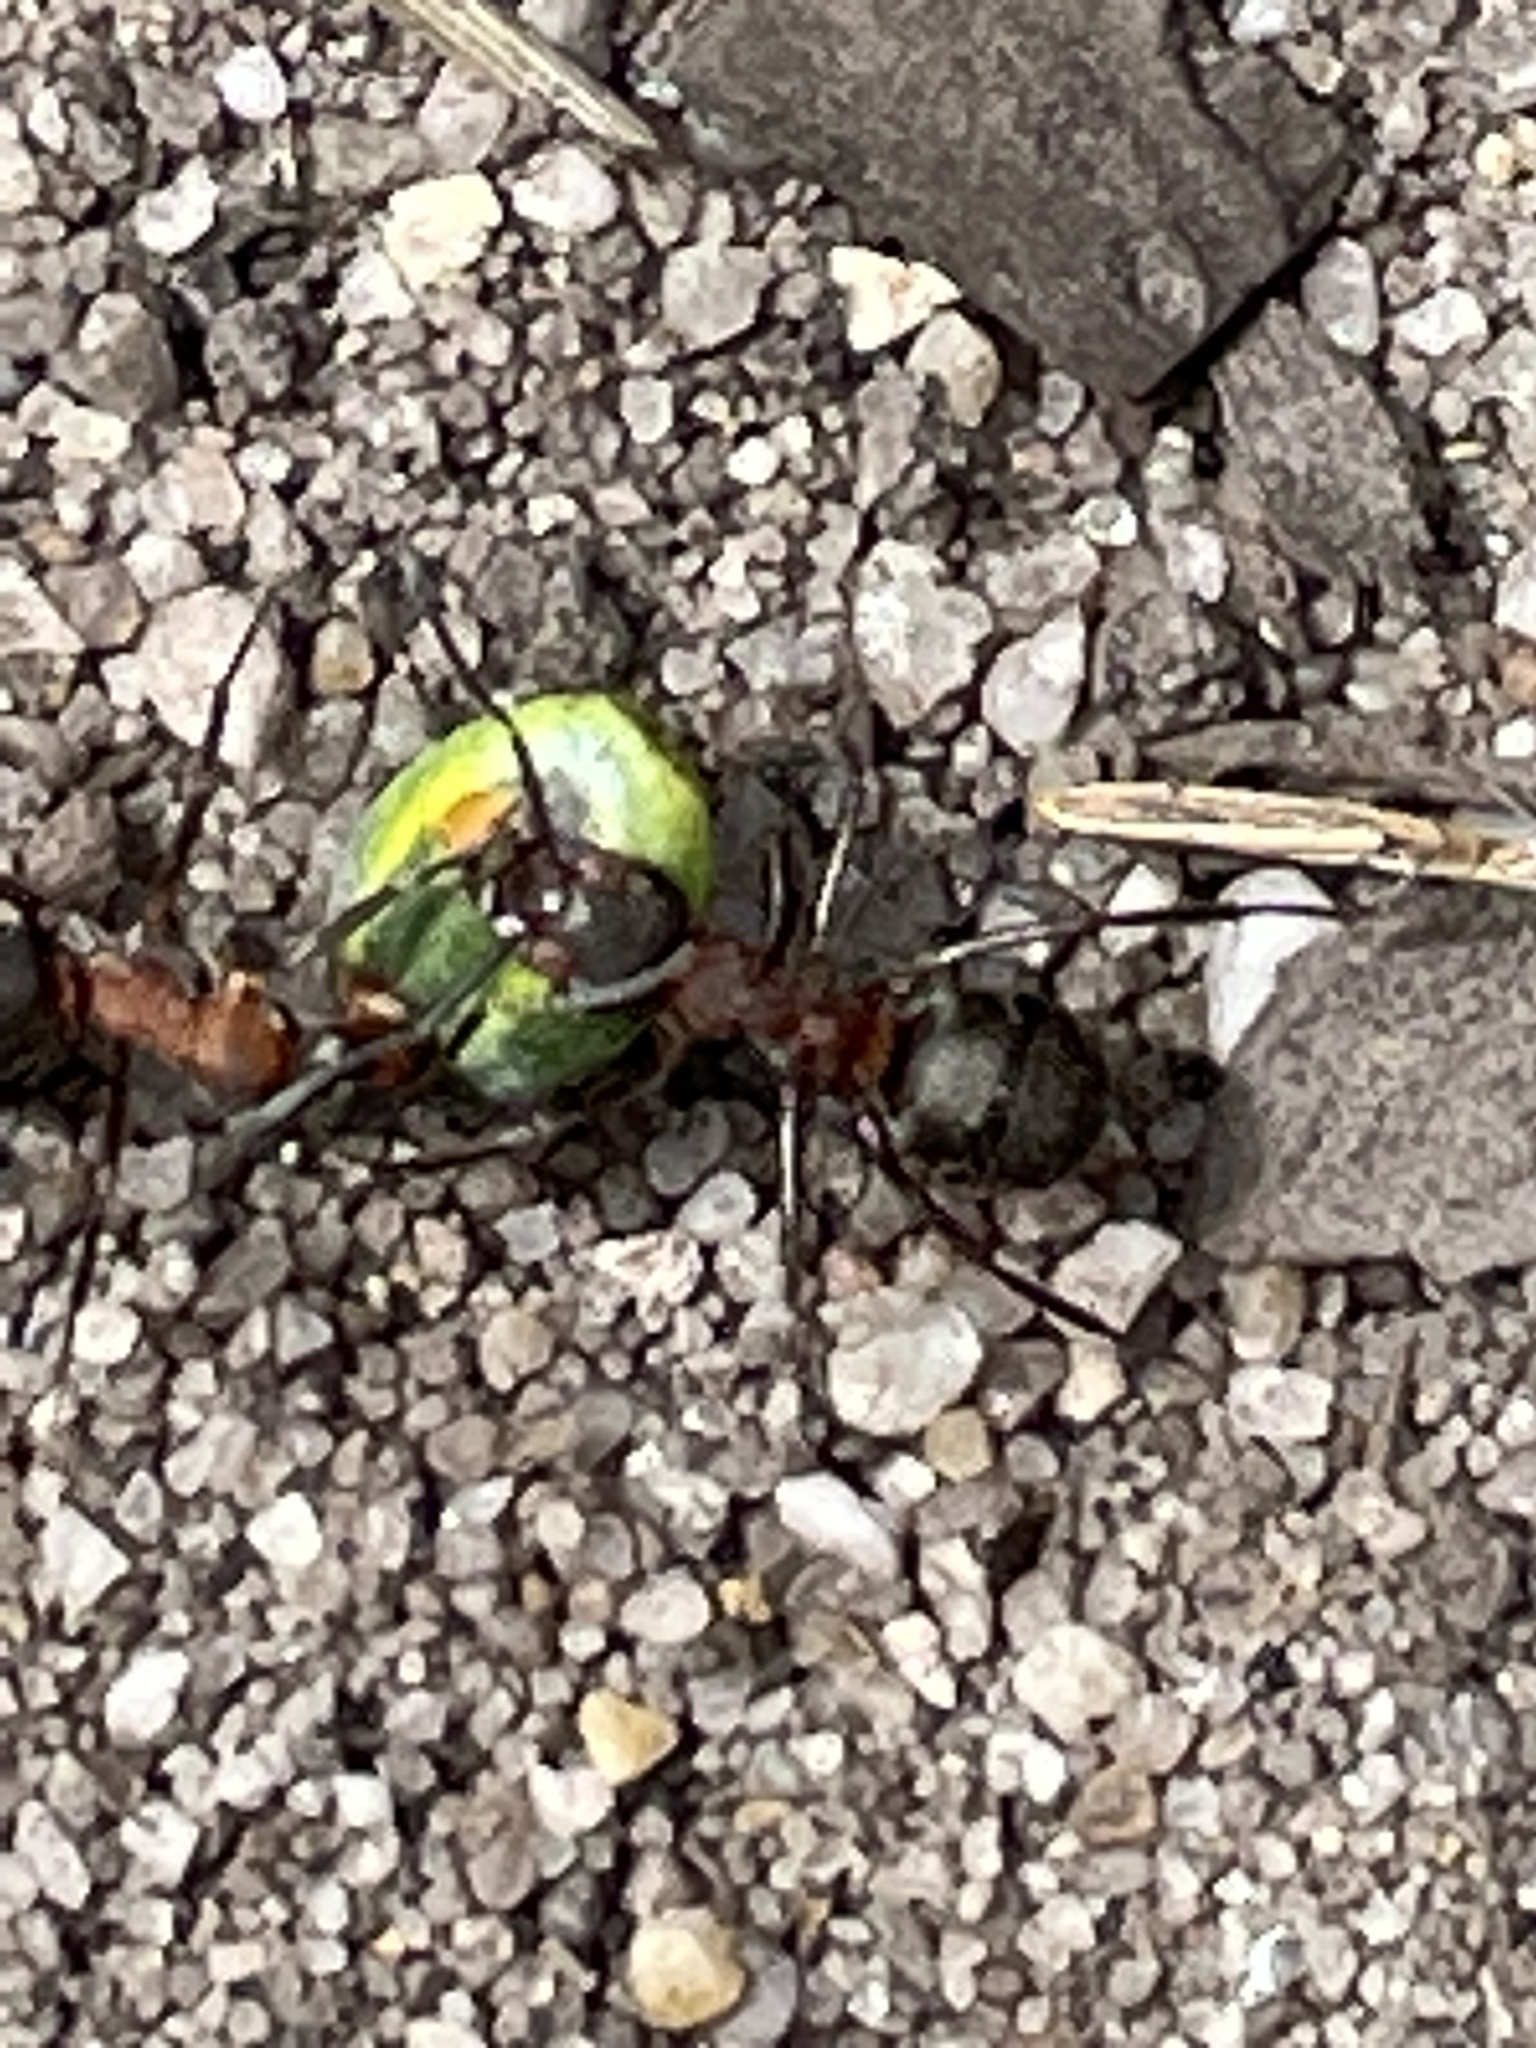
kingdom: Animalia
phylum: Arthropoda
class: Insecta
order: Hymenoptera
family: Formicidae
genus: Formica
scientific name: Formica
